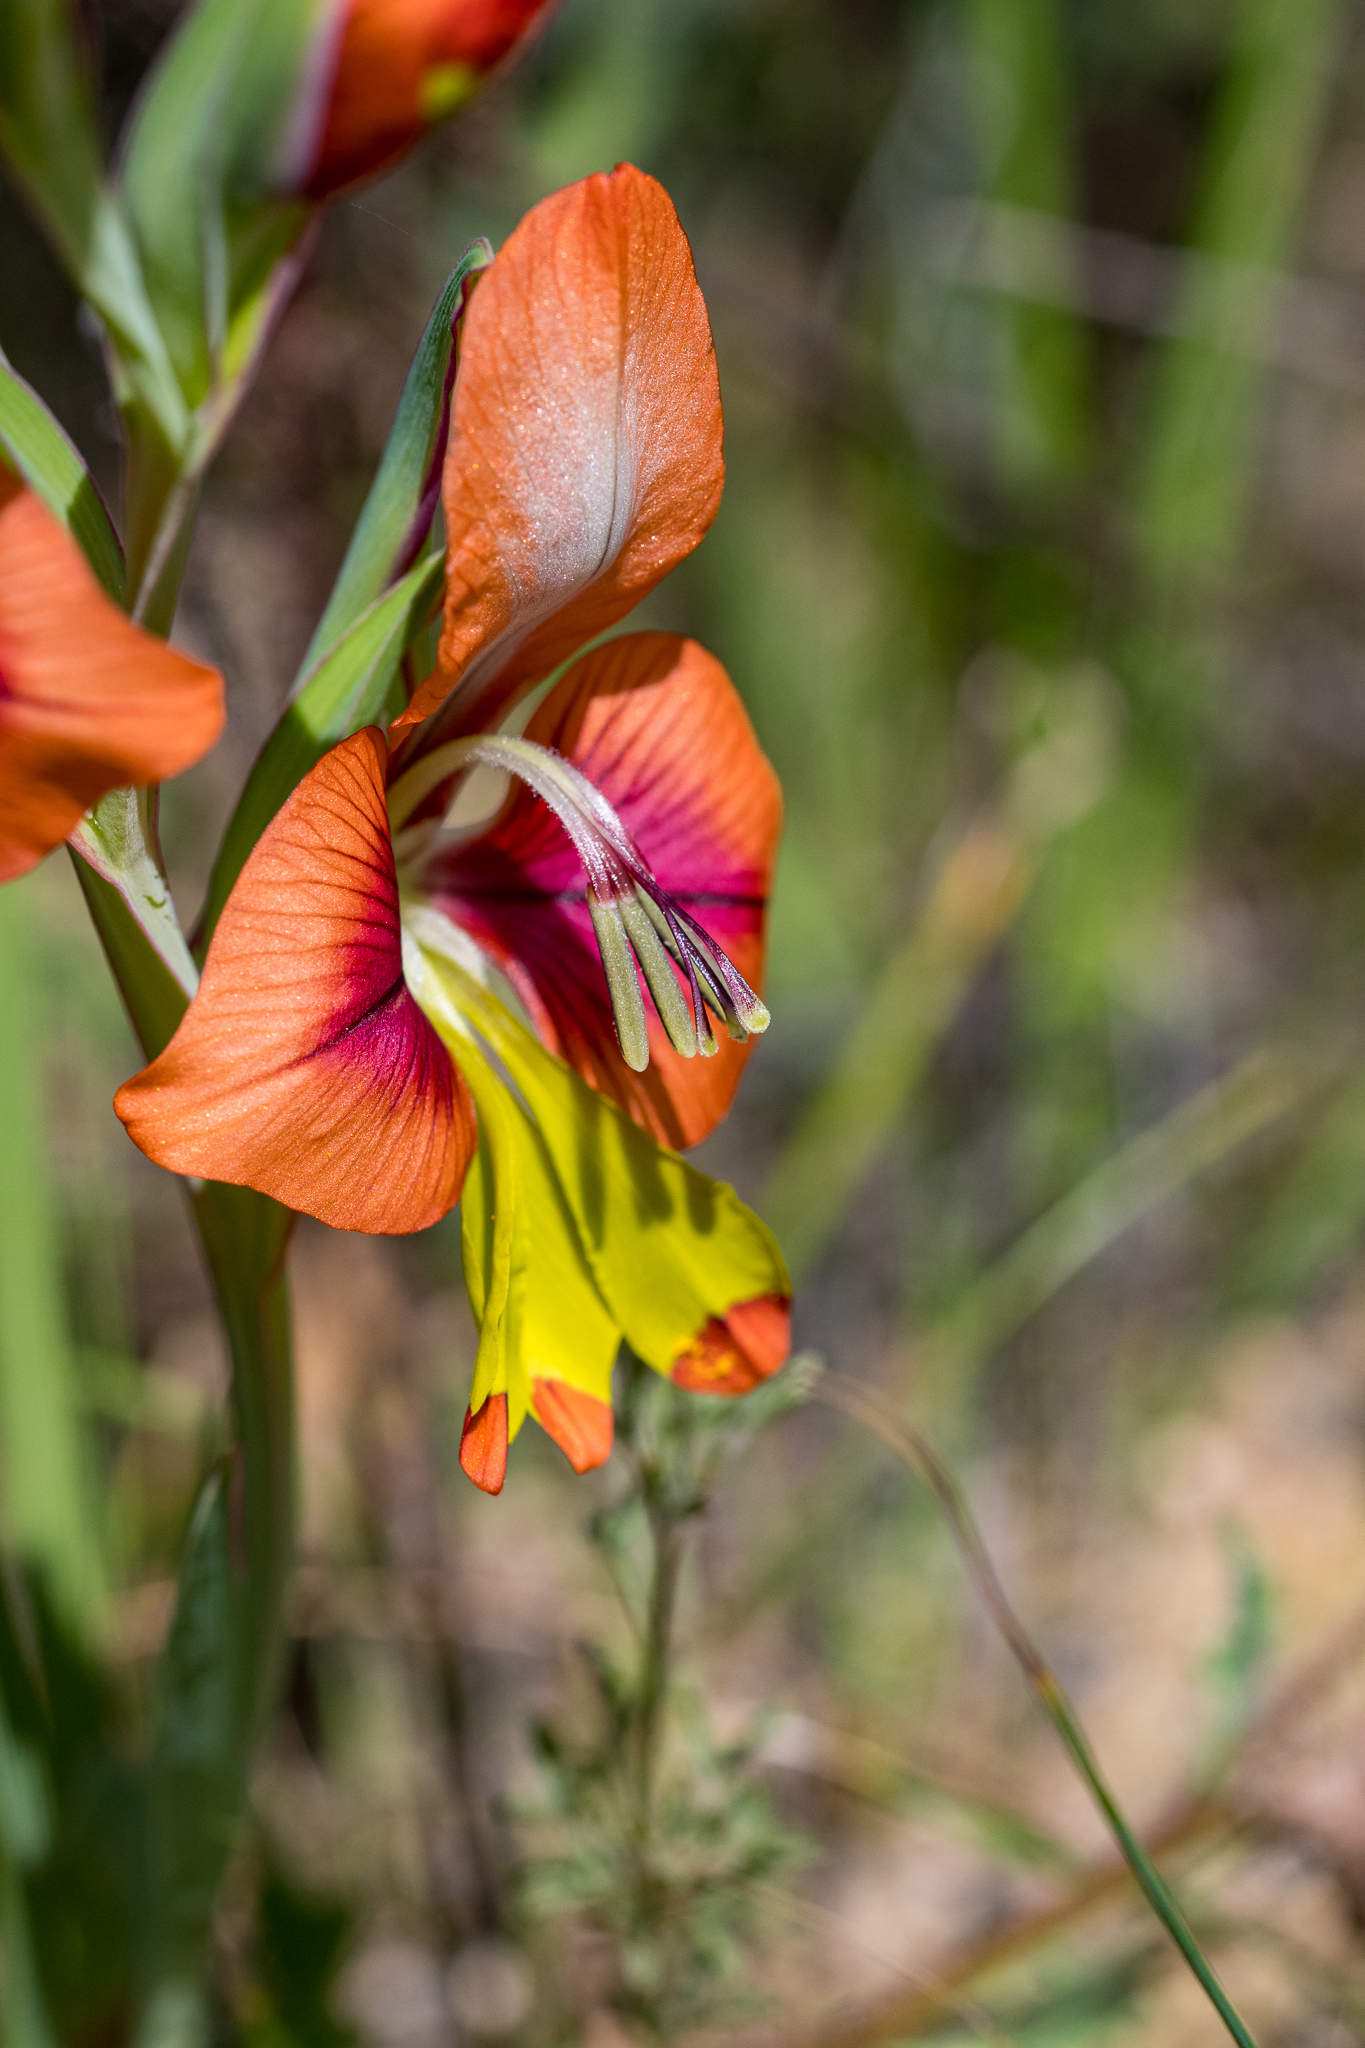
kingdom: Plantae
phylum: Tracheophyta
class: Liliopsida
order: Asparagales
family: Iridaceae
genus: Gladiolus
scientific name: Gladiolus alatus
